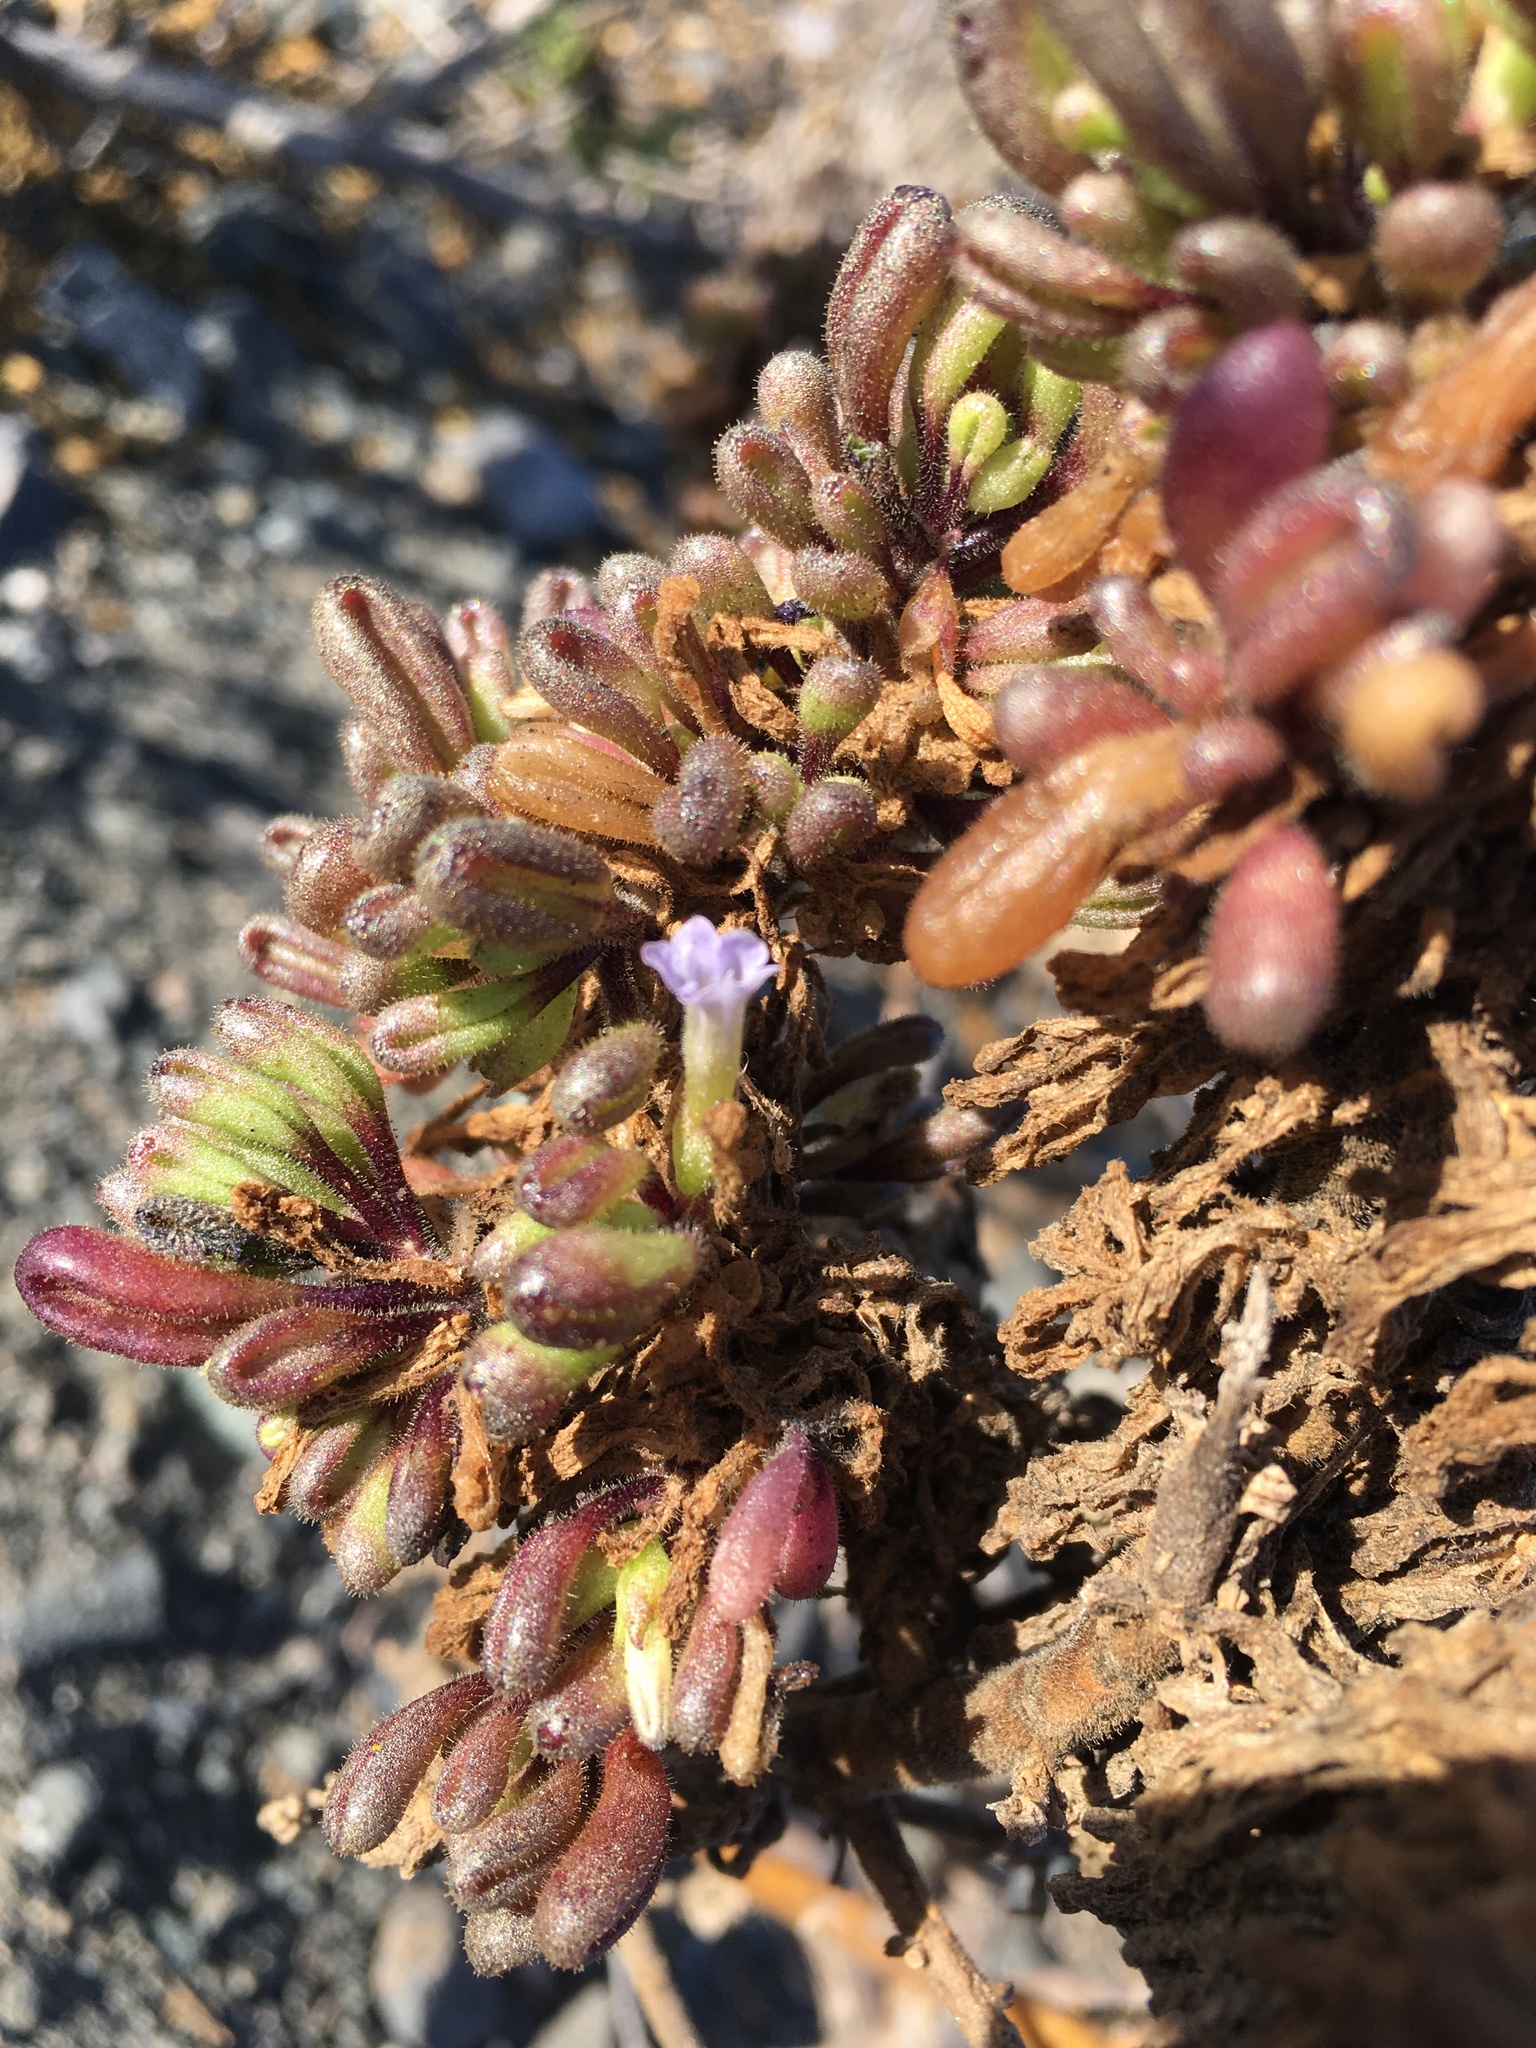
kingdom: Plantae
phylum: Tracheophyta
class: Magnoliopsida
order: Solanales
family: Solanaceae
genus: Nolana
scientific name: Nolana onoana
